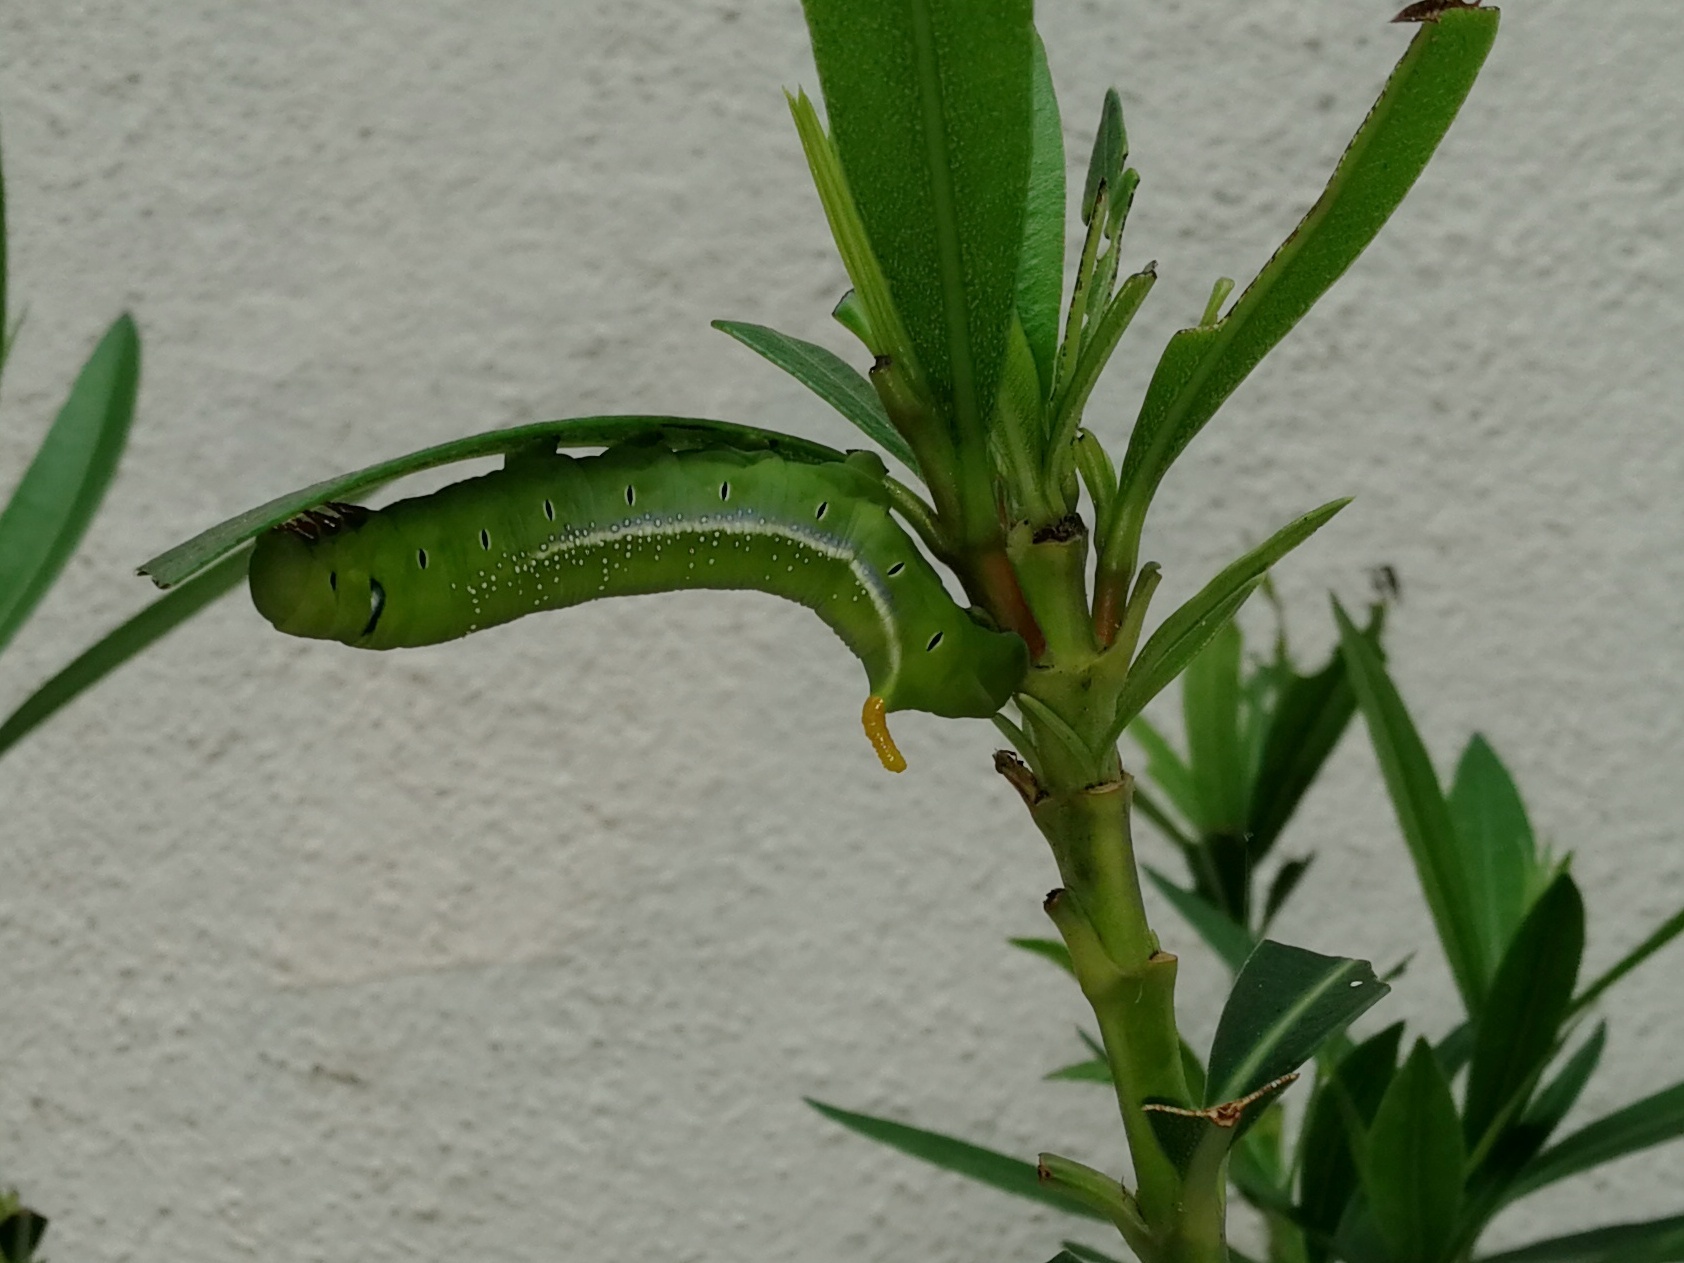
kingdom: Animalia
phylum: Arthropoda
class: Insecta
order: Lepidoptera
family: Sphingidae
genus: Daphnis
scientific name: Daphnis nerii
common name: Oleander hawk-moth
